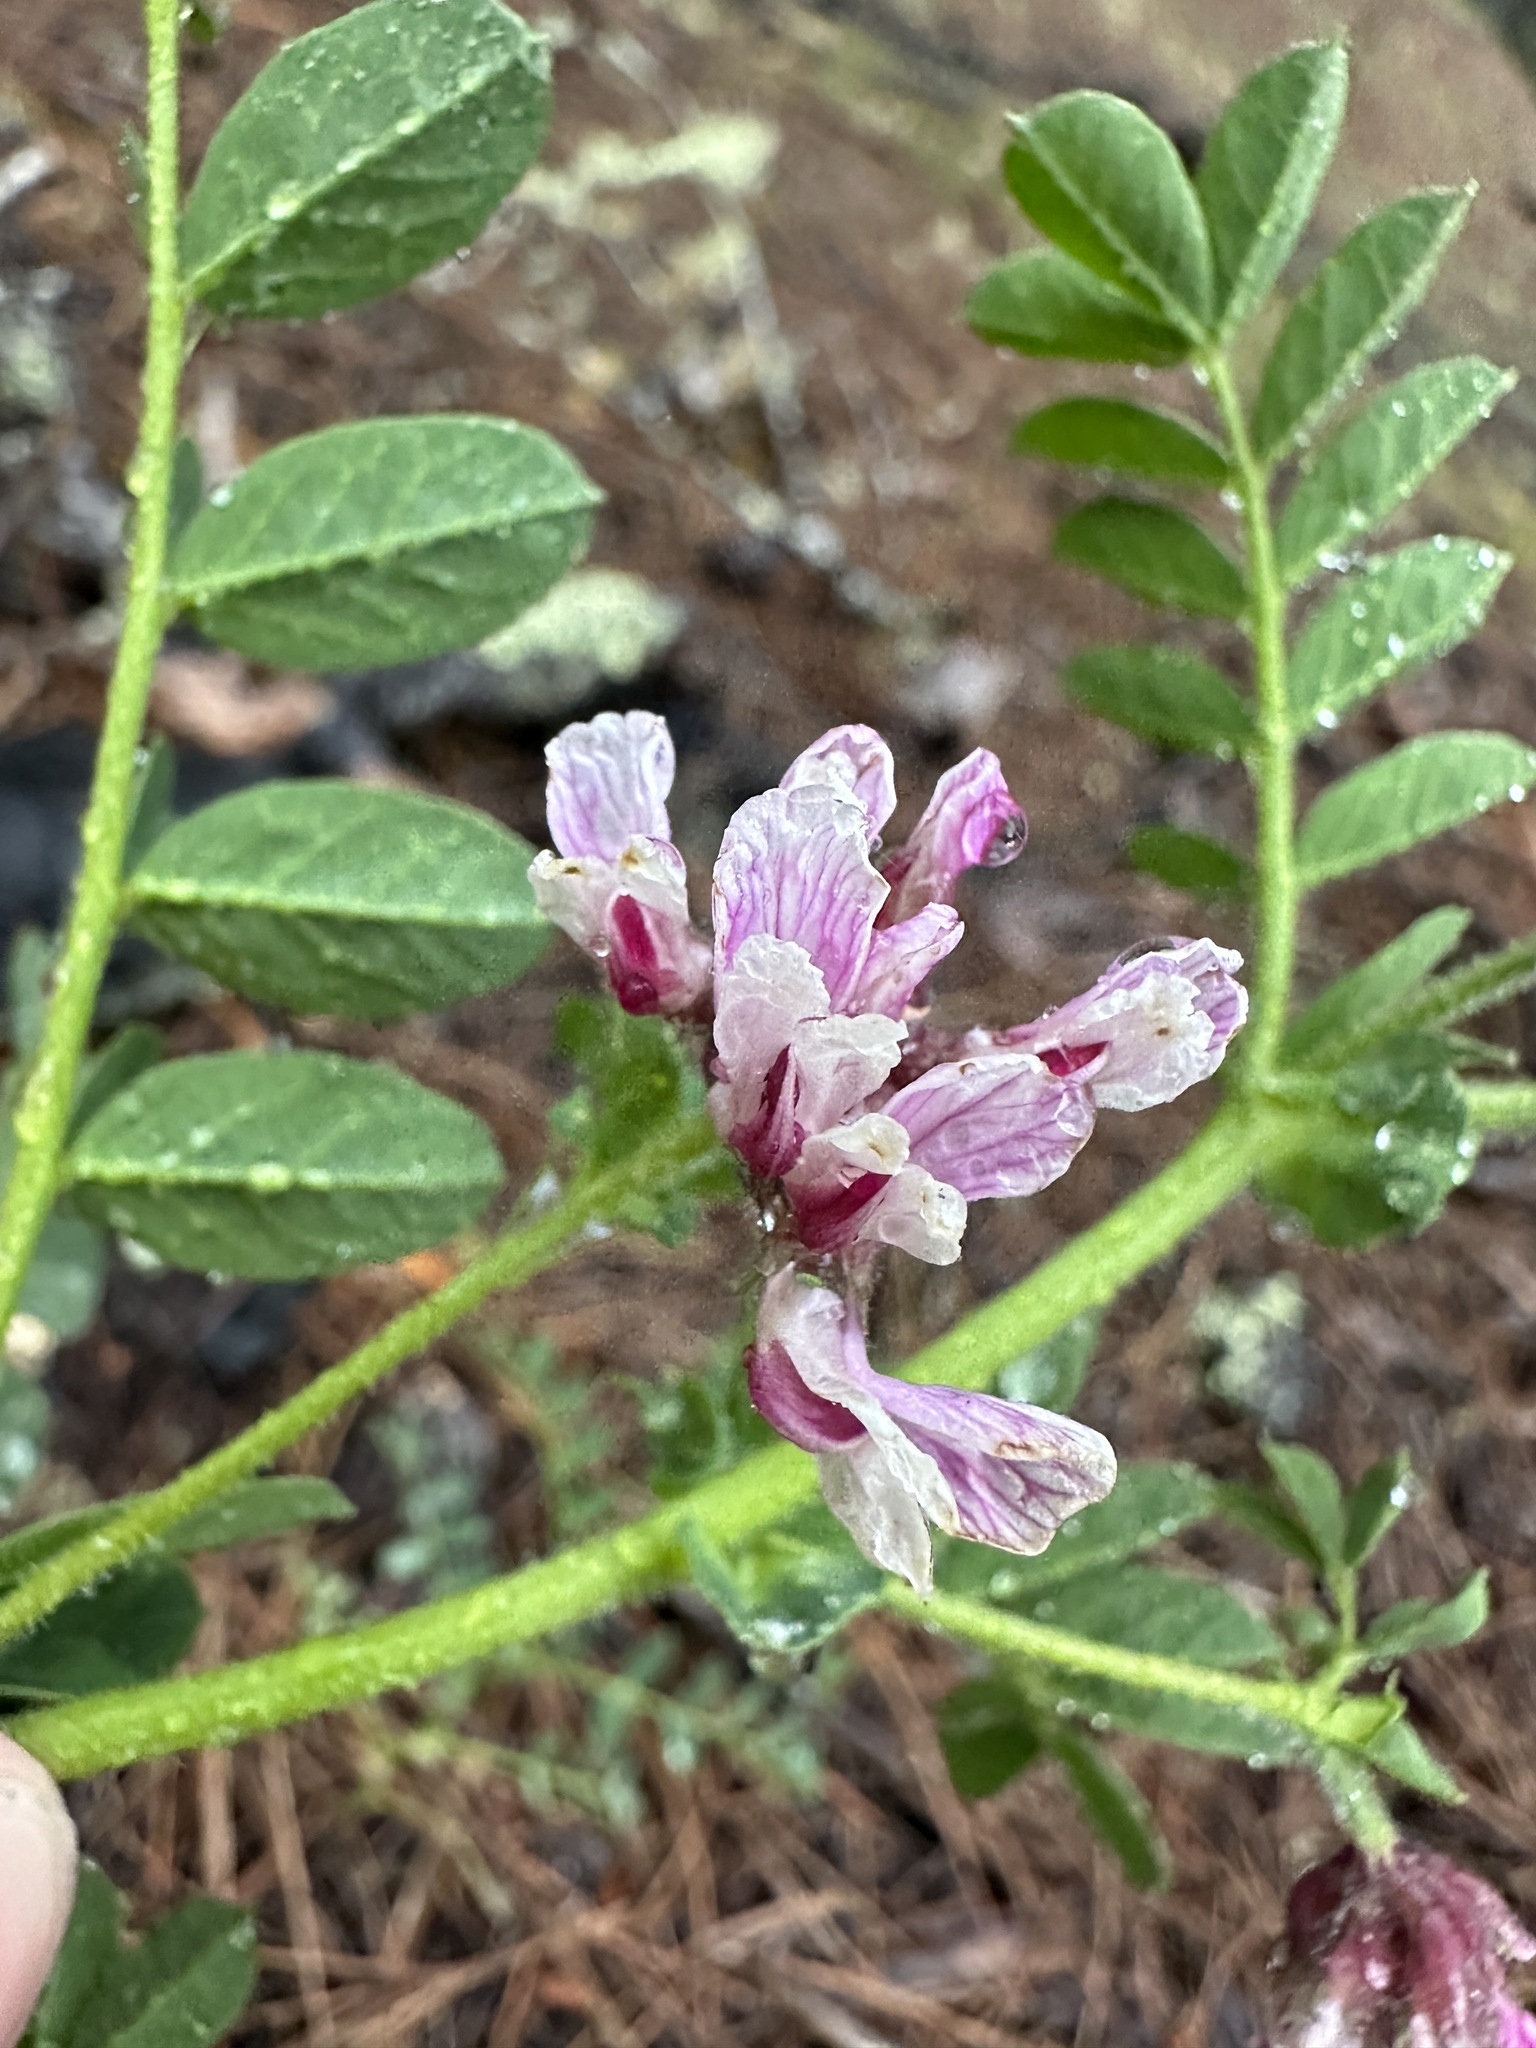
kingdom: Plantae
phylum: Tracheophyta
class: Magnoliopsida
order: Fabales
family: Fabaceae
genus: Hosackia
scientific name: Hosackia stipularis
